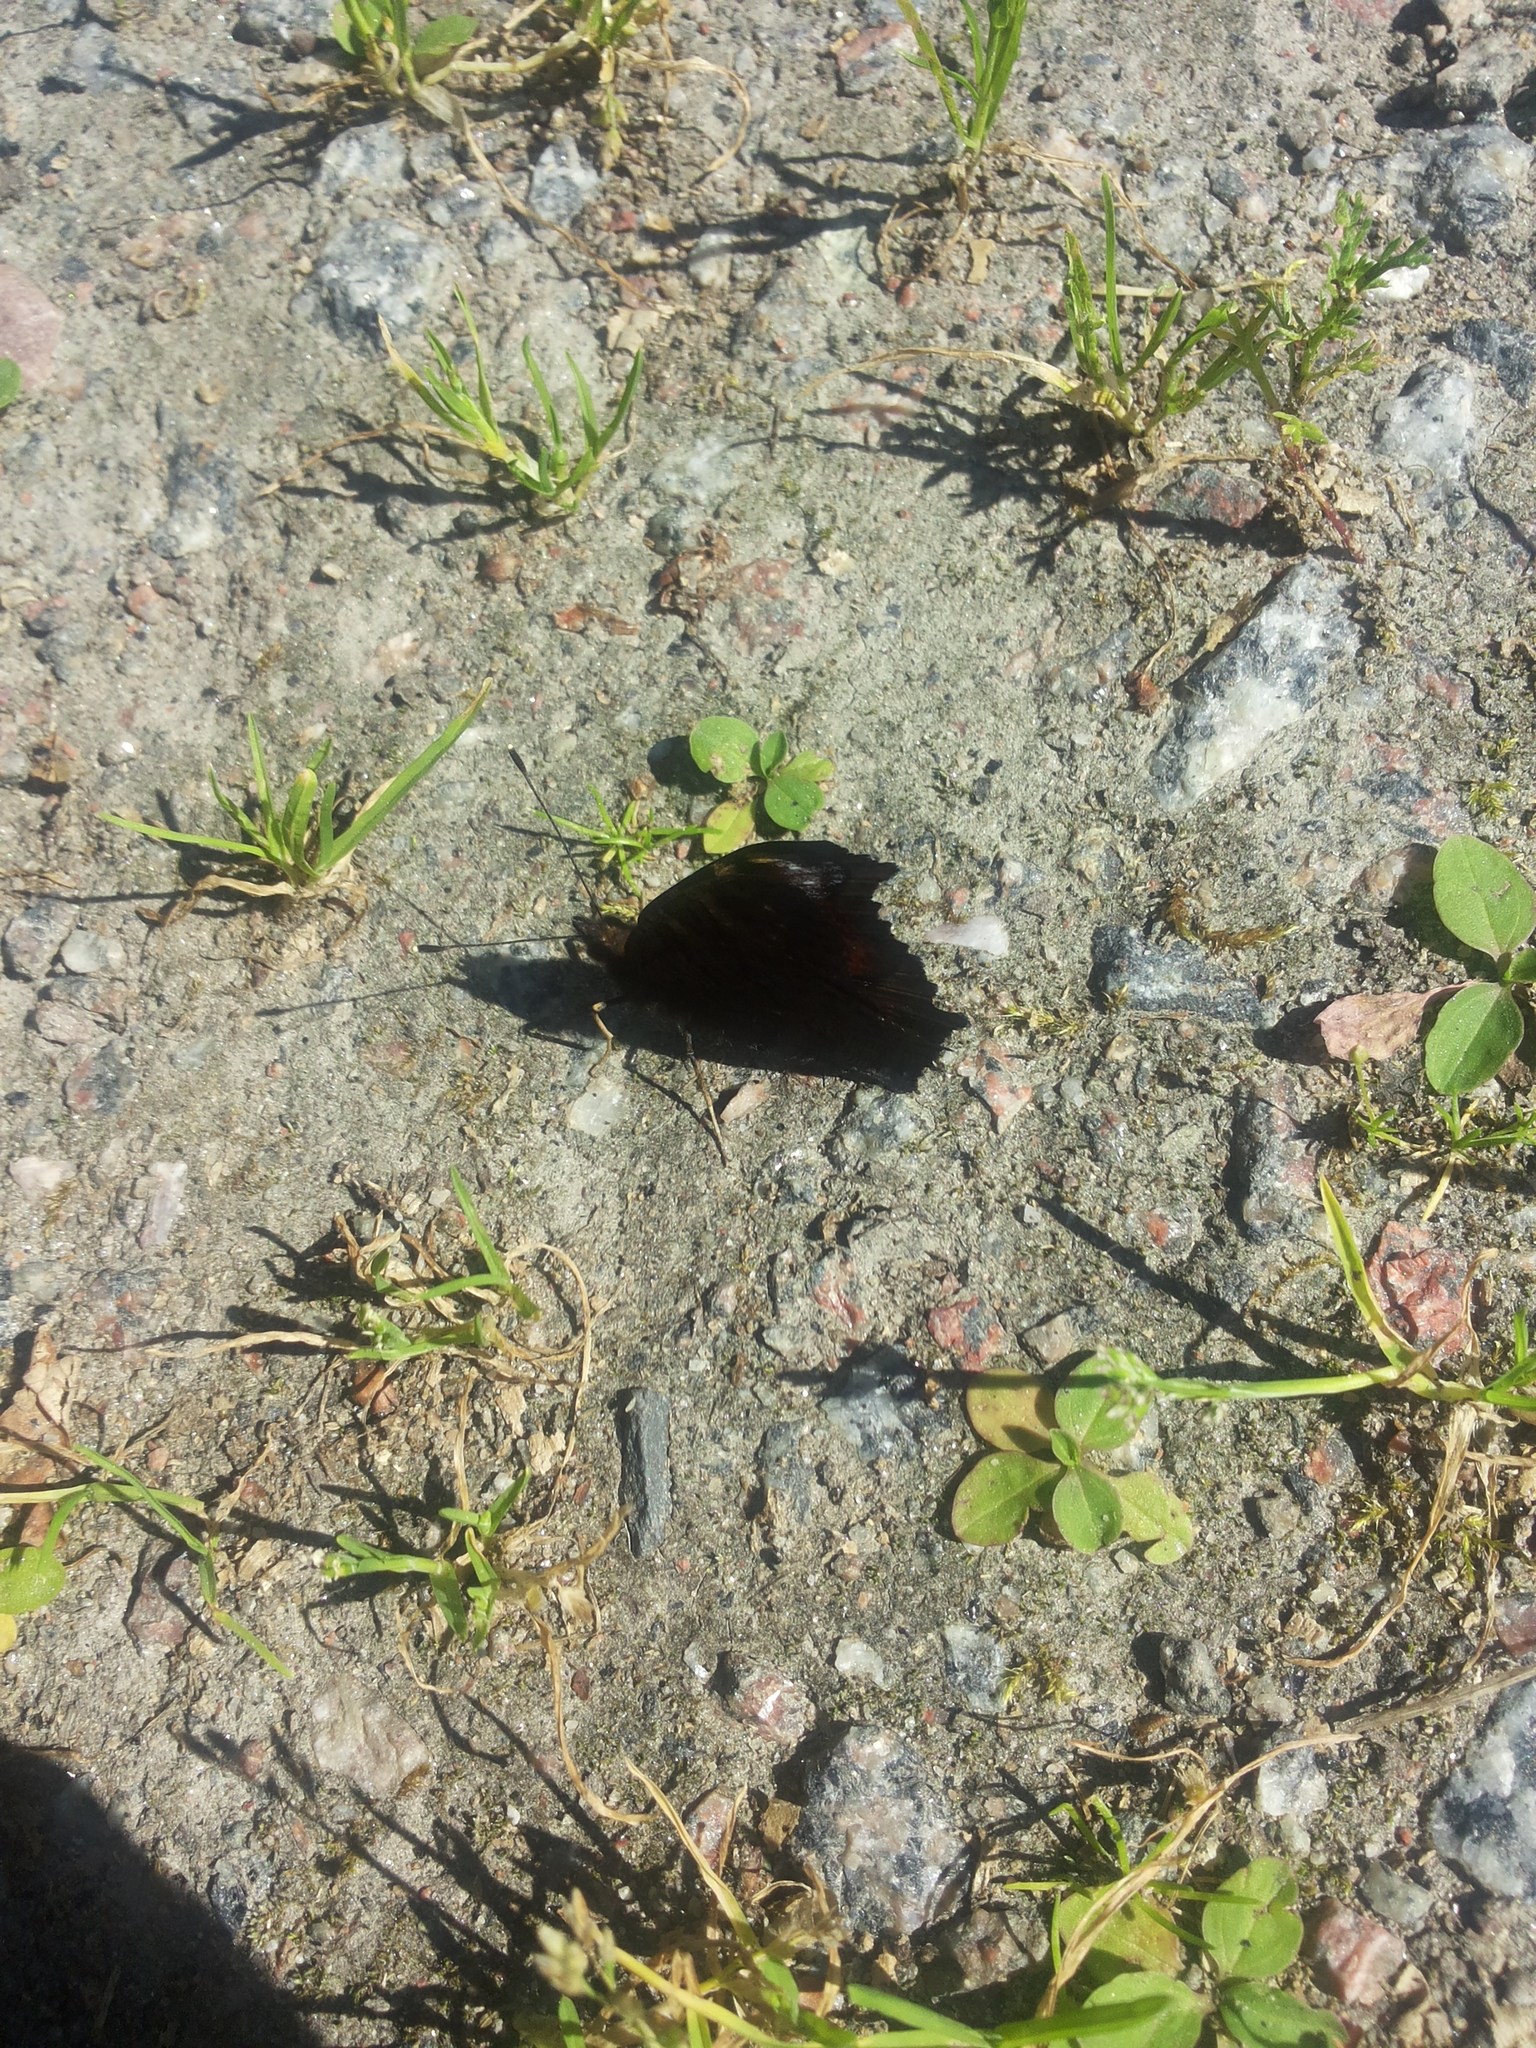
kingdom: Animalia
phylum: Arthropoda
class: Insecta
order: Lepidoptera
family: Nymphalidae
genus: Aglais
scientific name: Aglais io
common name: Peacock
